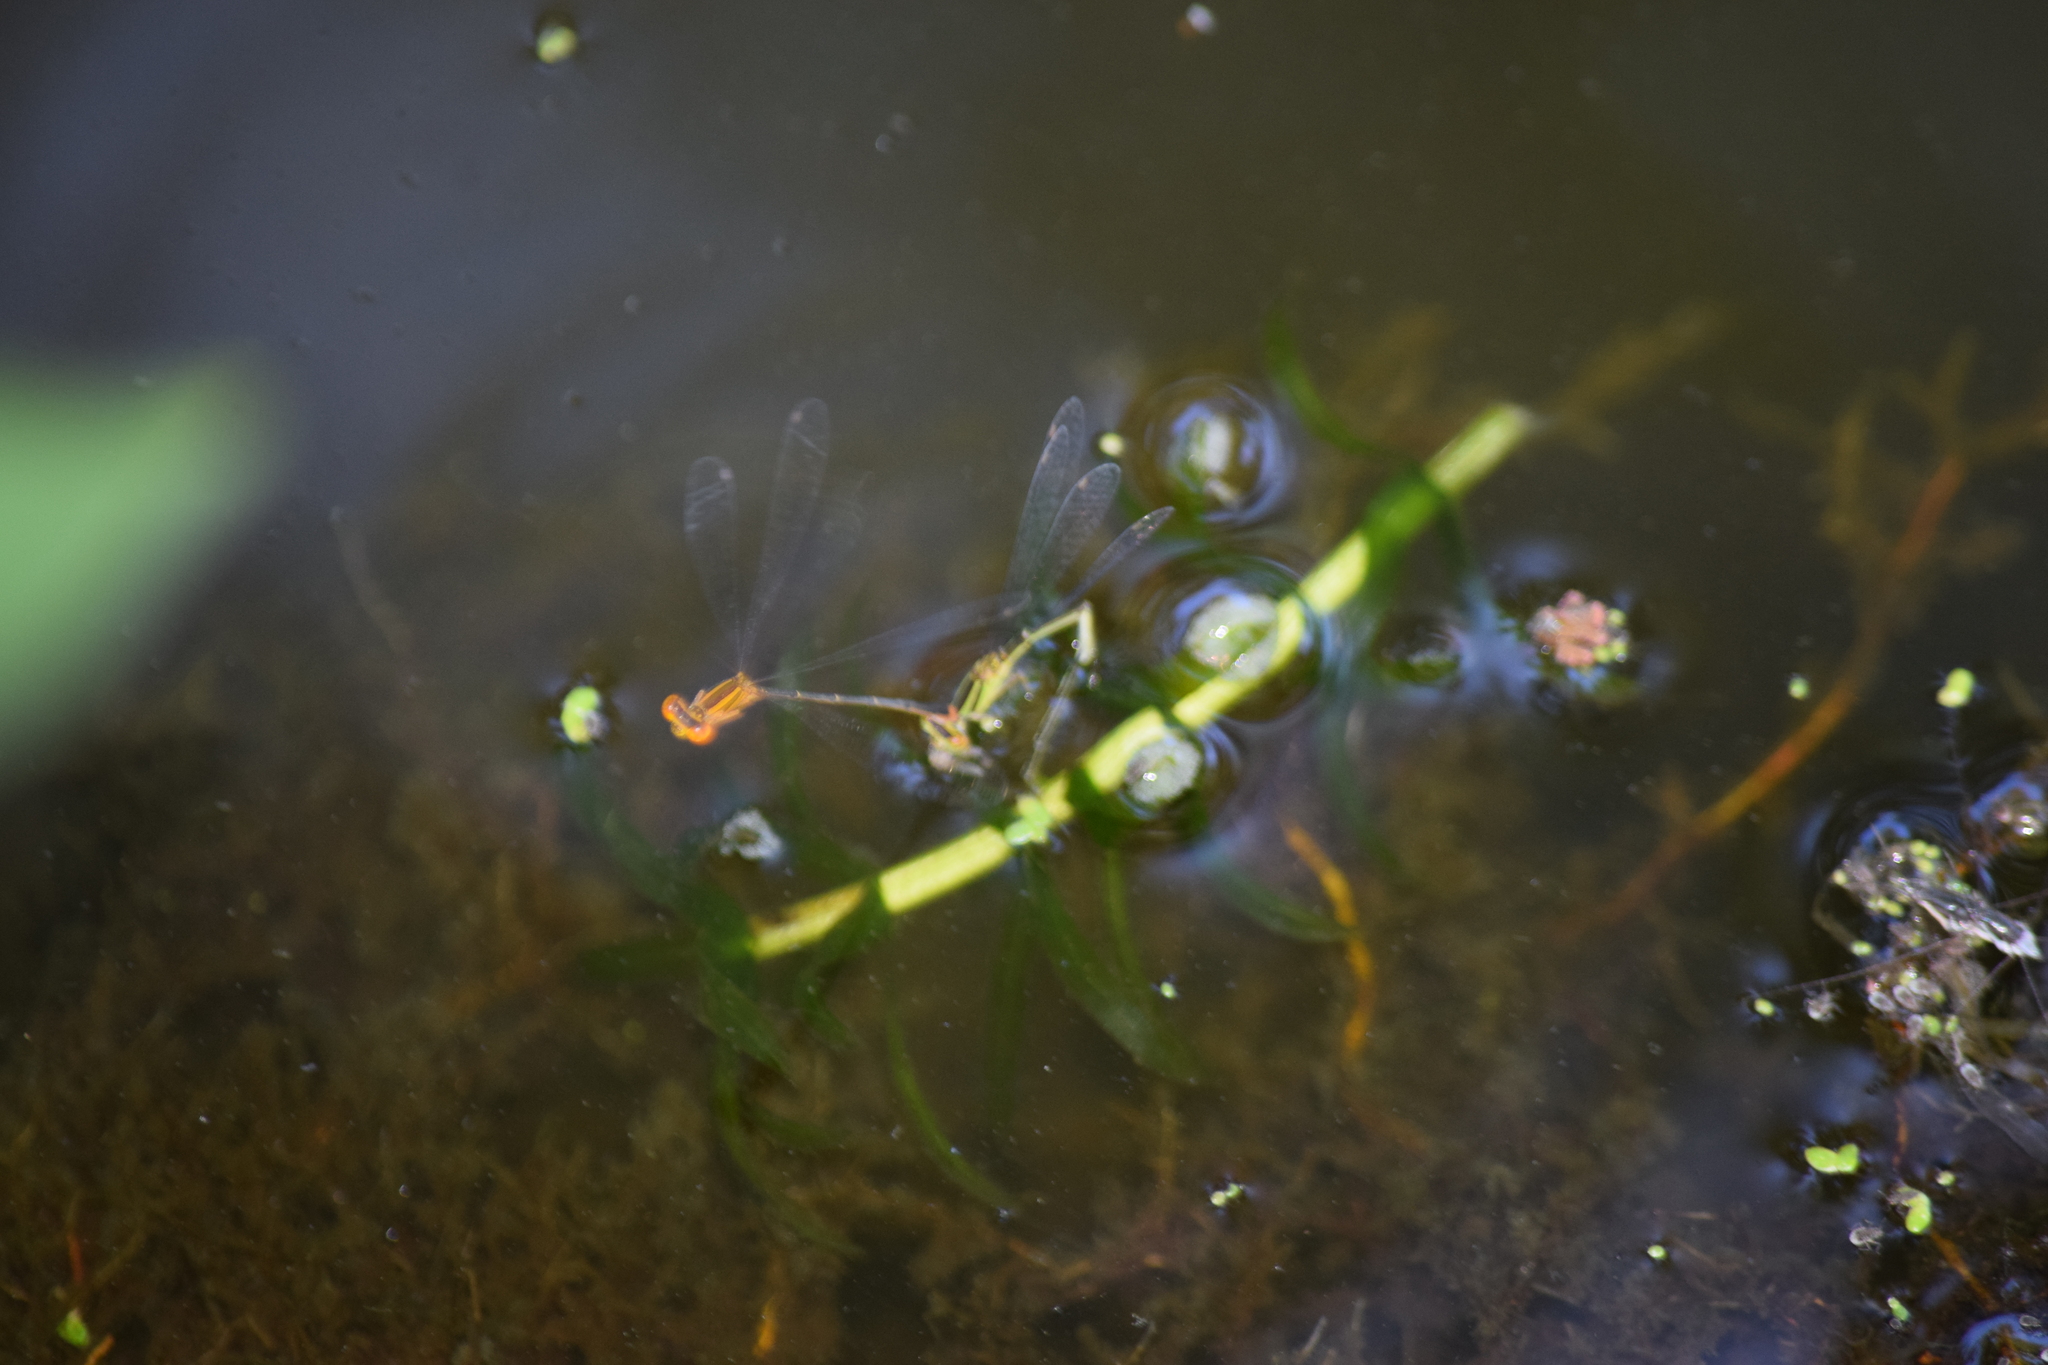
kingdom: Animalia
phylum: Arthropoda
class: Insecta
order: Odonata
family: Coenagrionidae
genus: Enallagma
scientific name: Enallagma signatum
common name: Orange bluet
